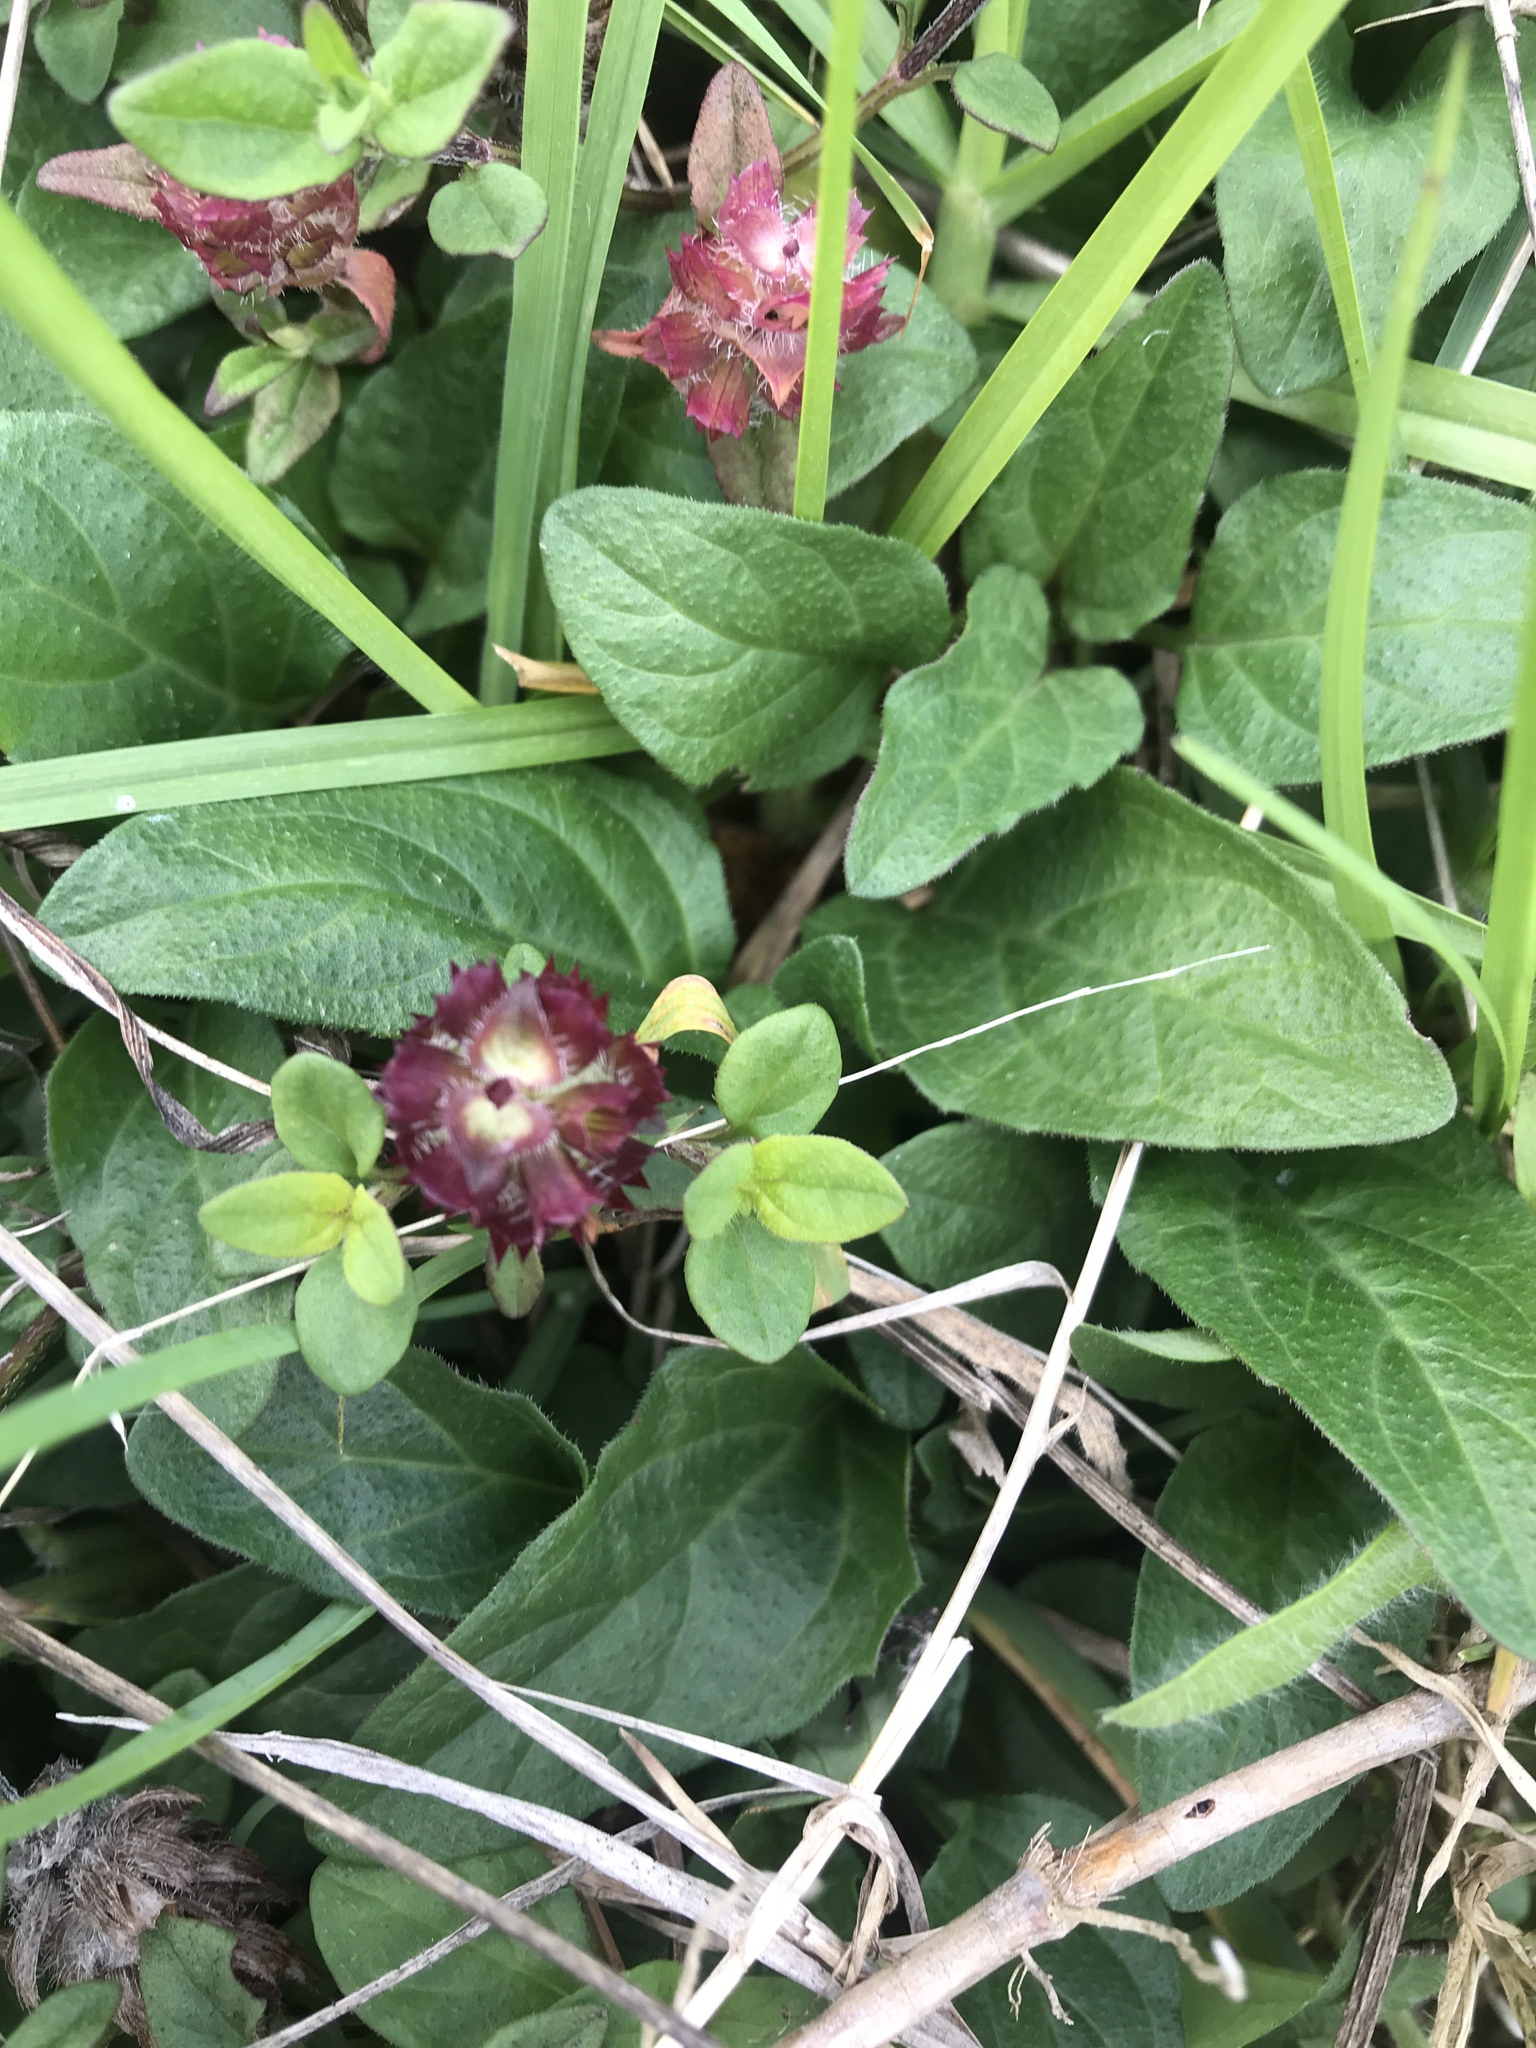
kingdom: Plantae
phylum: Tracheophyta
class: Magnoliopsida
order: Lamiales
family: Lamiaceae
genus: Prunella
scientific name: Prunella vulgaris
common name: Heal-all
